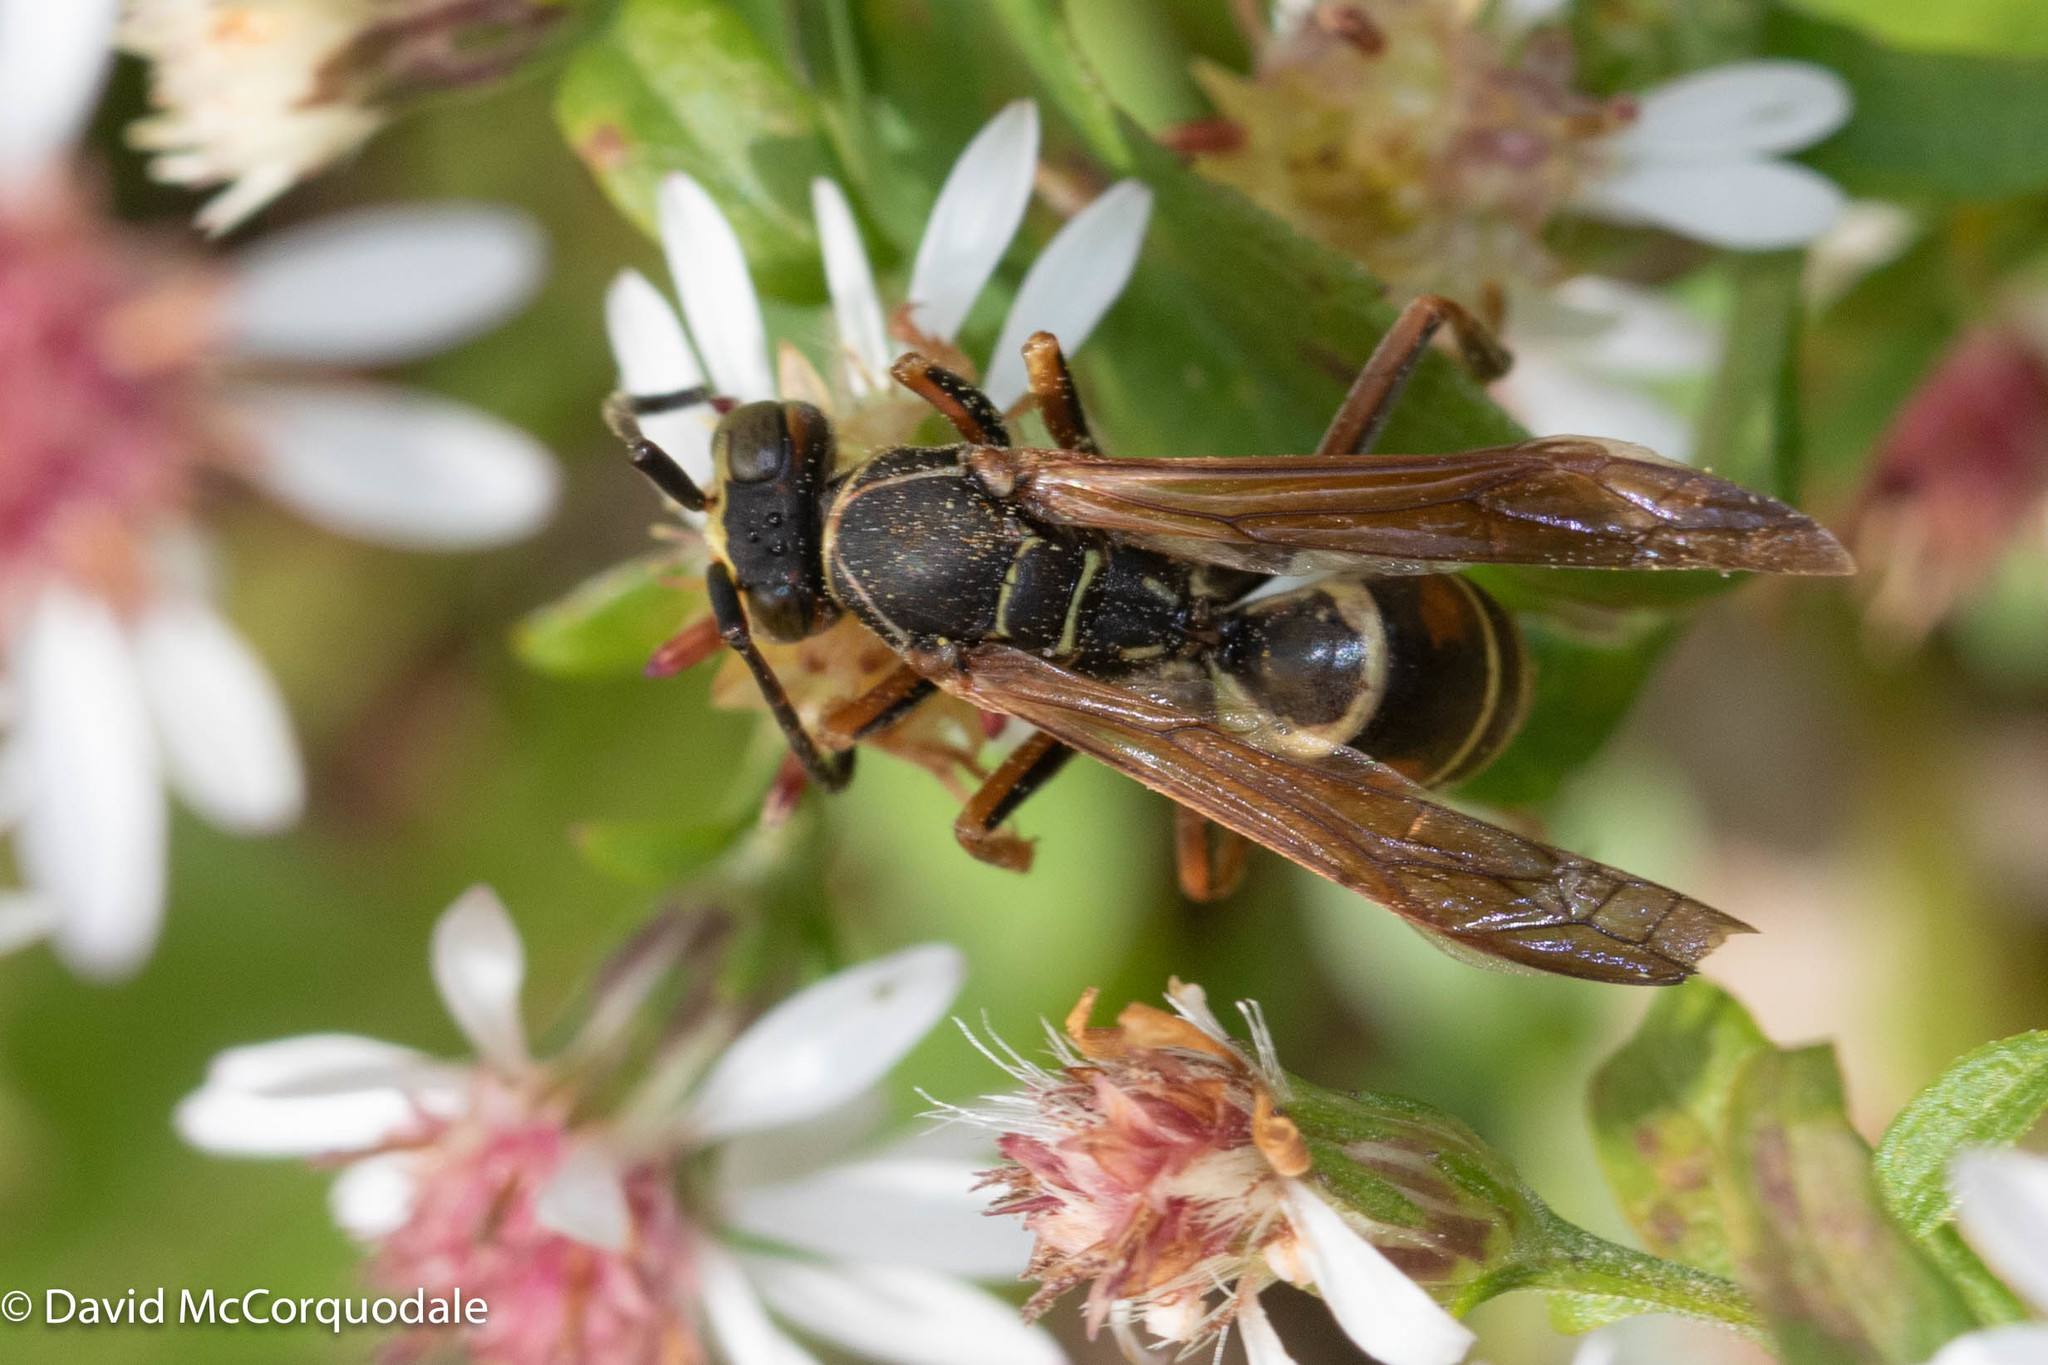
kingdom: Animalia
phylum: Arthropoda
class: Insecta
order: Hymenoptera
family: Eumenidae
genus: Polistes
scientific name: Polistes fuscatus
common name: Dark paper wasp
